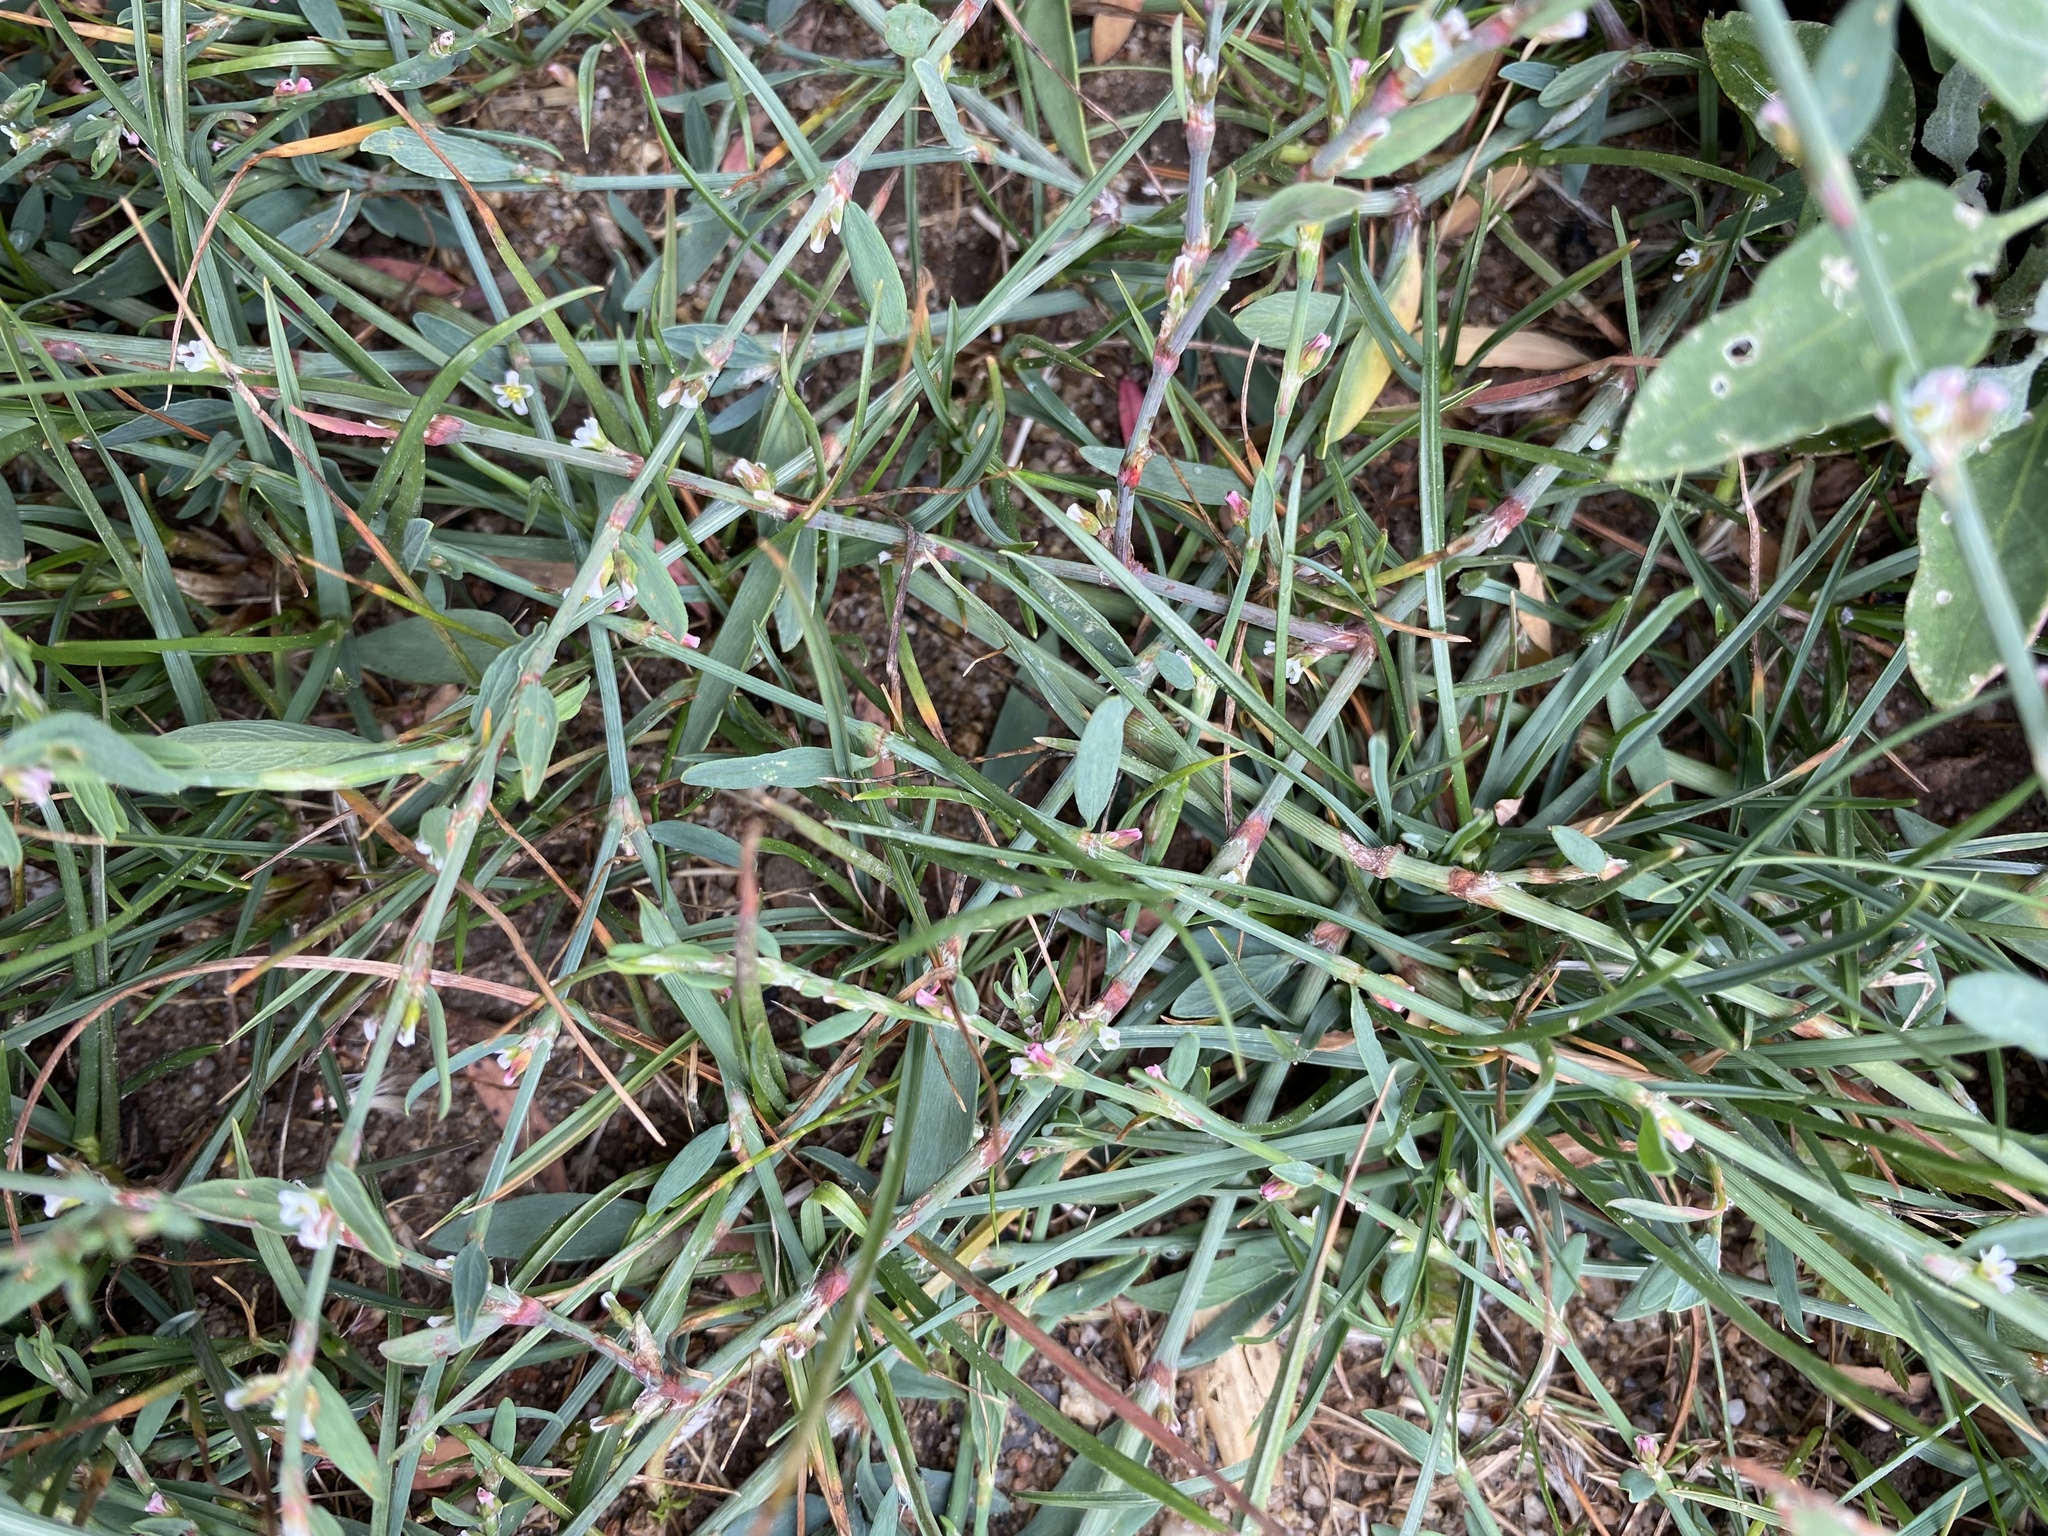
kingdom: Plantae
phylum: Tracheophyta
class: Magnoliopsida
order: Caryophyllales
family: Polygonaceae
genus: Polygonum
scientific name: Polygonum aviculare
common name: Prostrate knotweed
